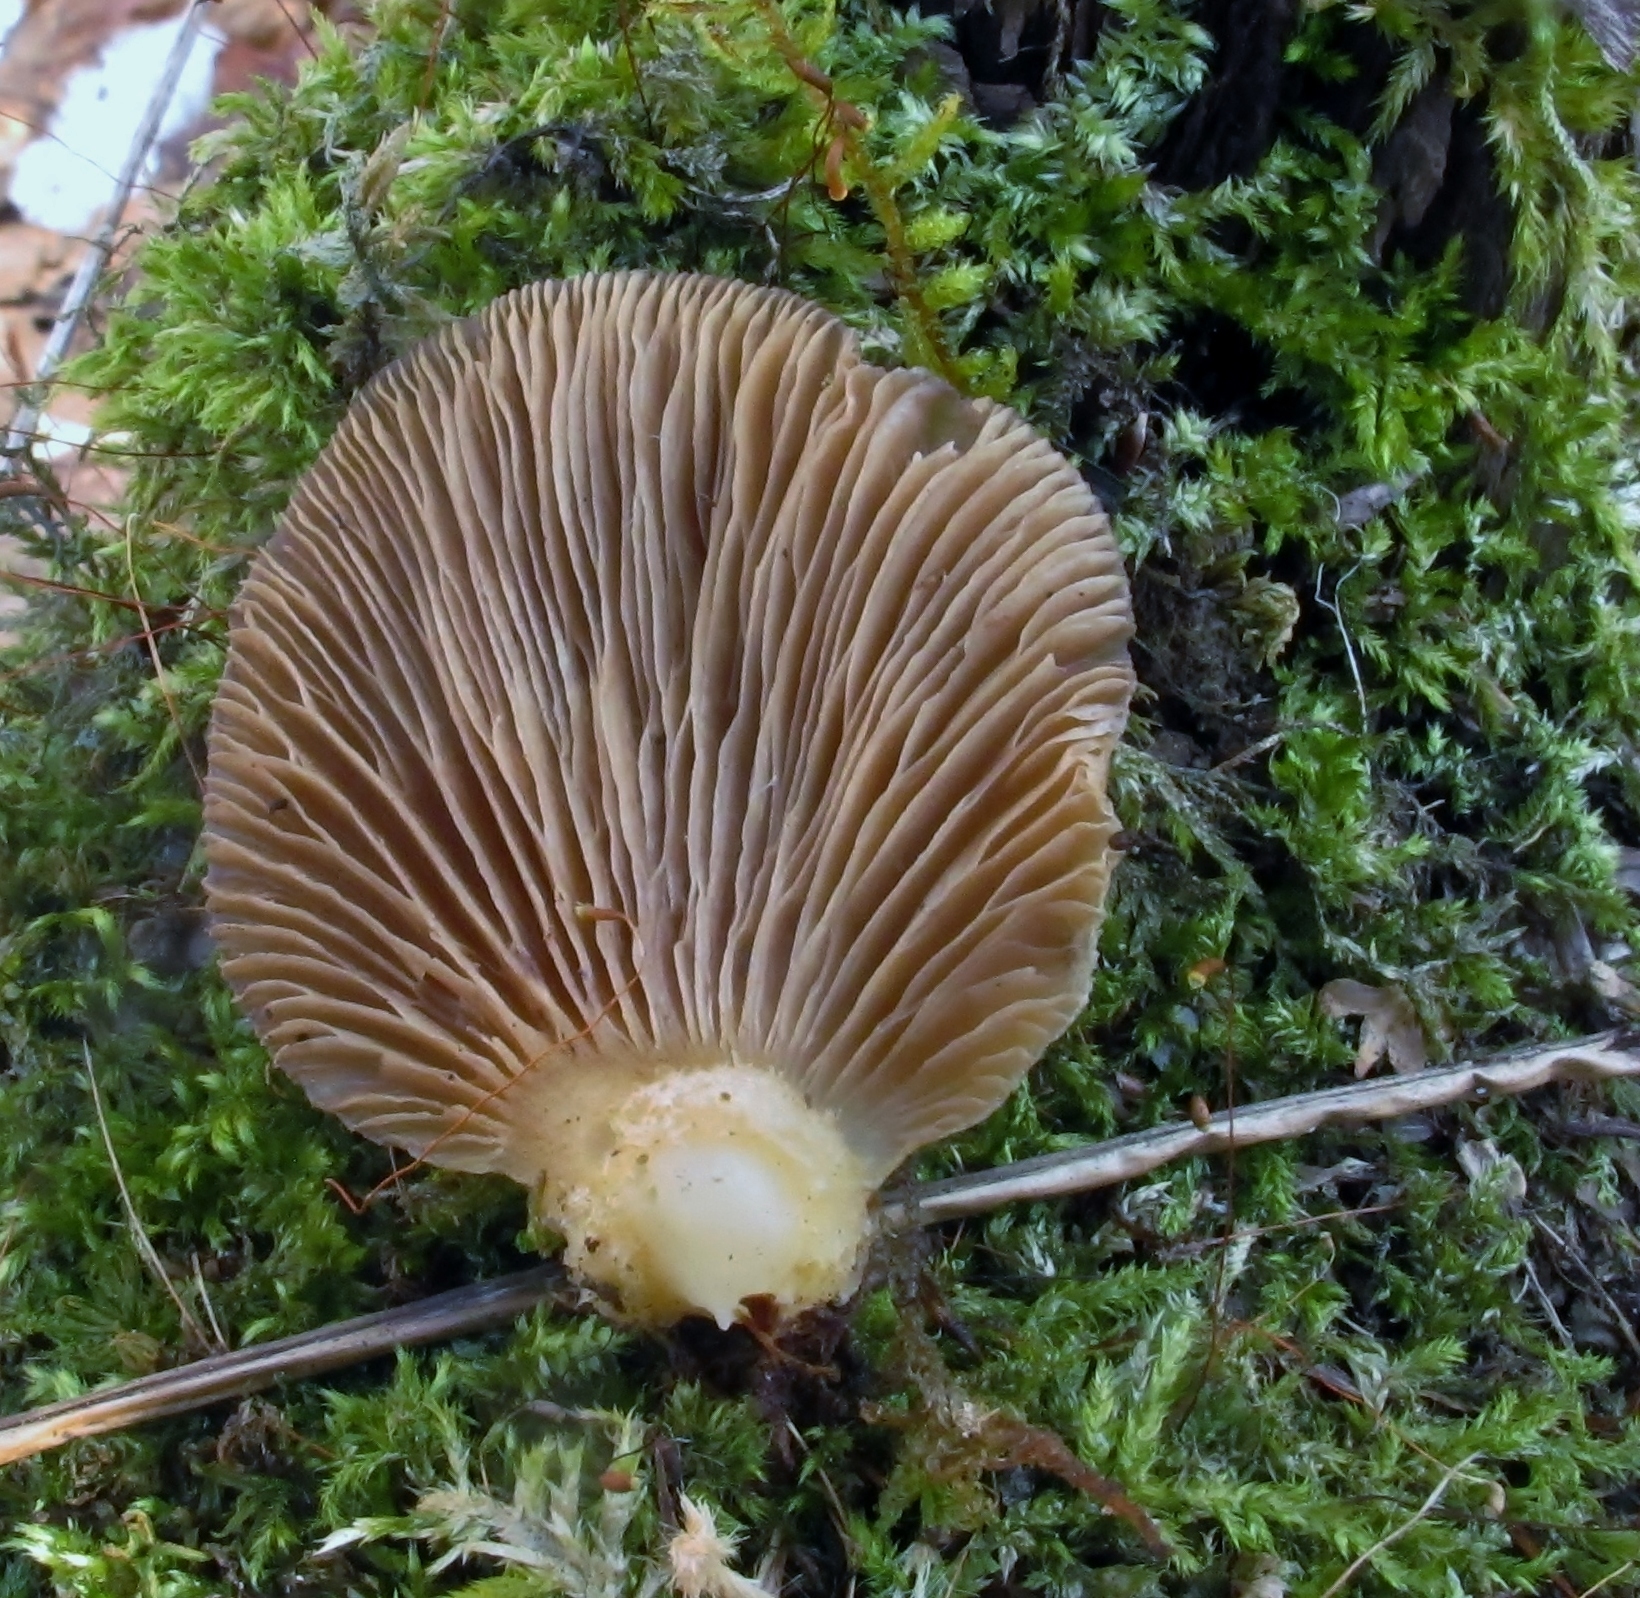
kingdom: Fungi
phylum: Basidiomycota
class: Agaricomycetes
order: Agaricales
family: Sarcomyxaceae
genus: Sarcomyxa
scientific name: Sarcomyxa serotina
